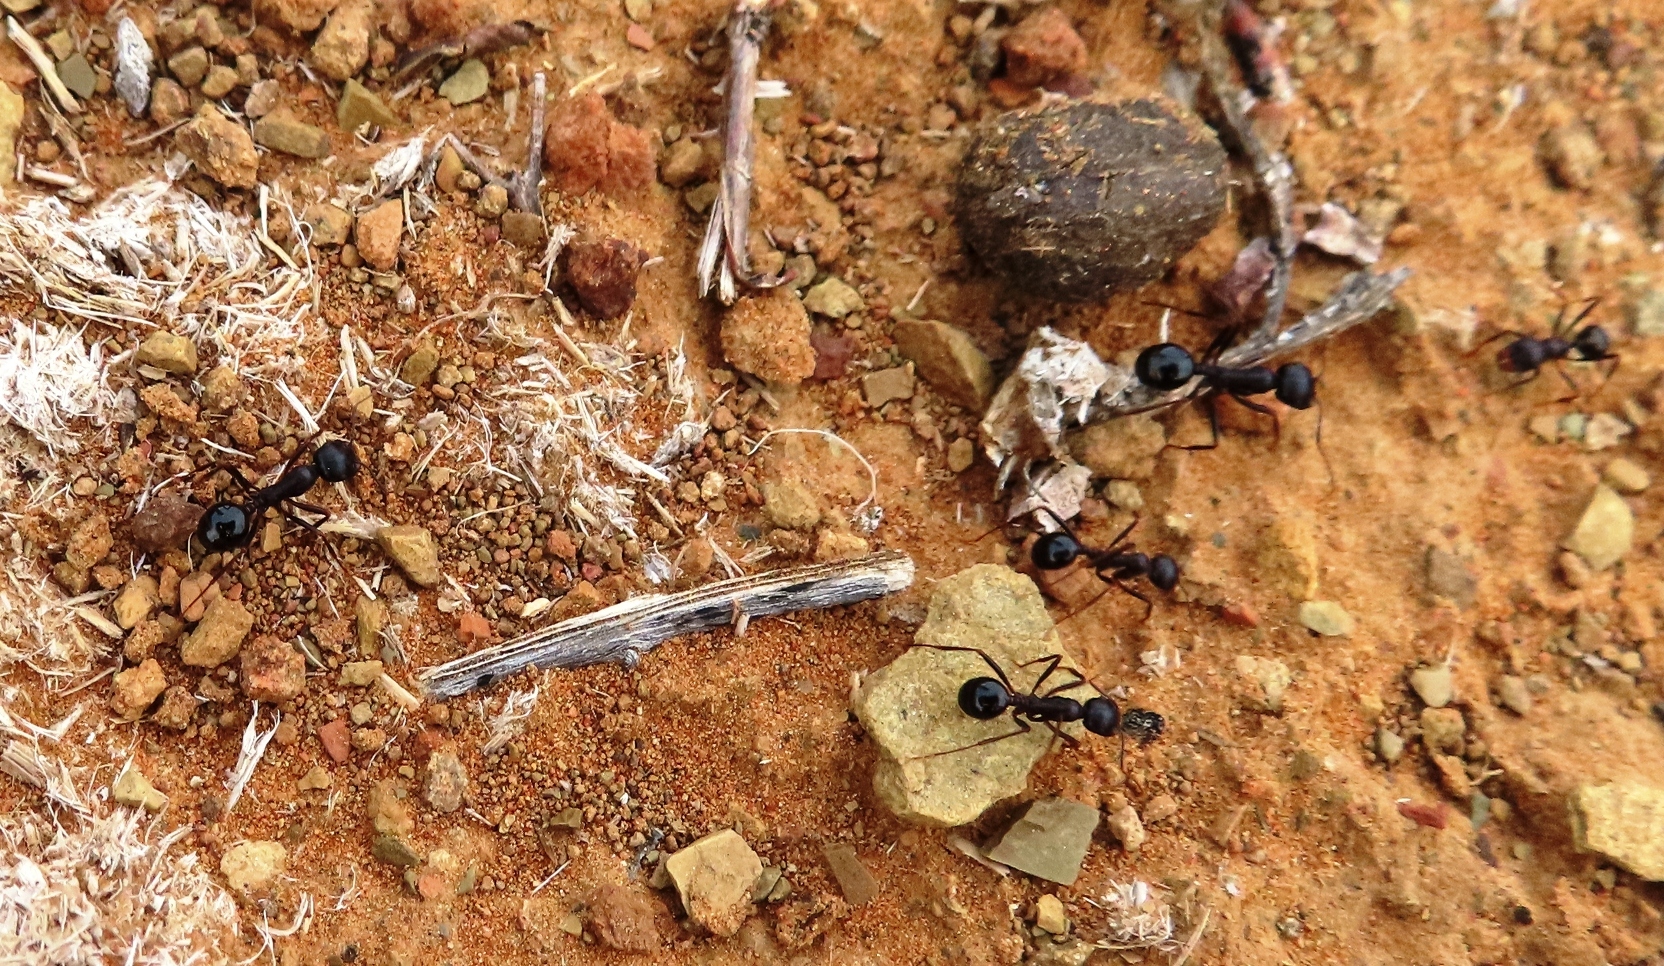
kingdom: Animalia
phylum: Arthropoda
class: Insecta
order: Hymenoptera
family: Formicidae
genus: Messor
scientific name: Messor striatifrons
